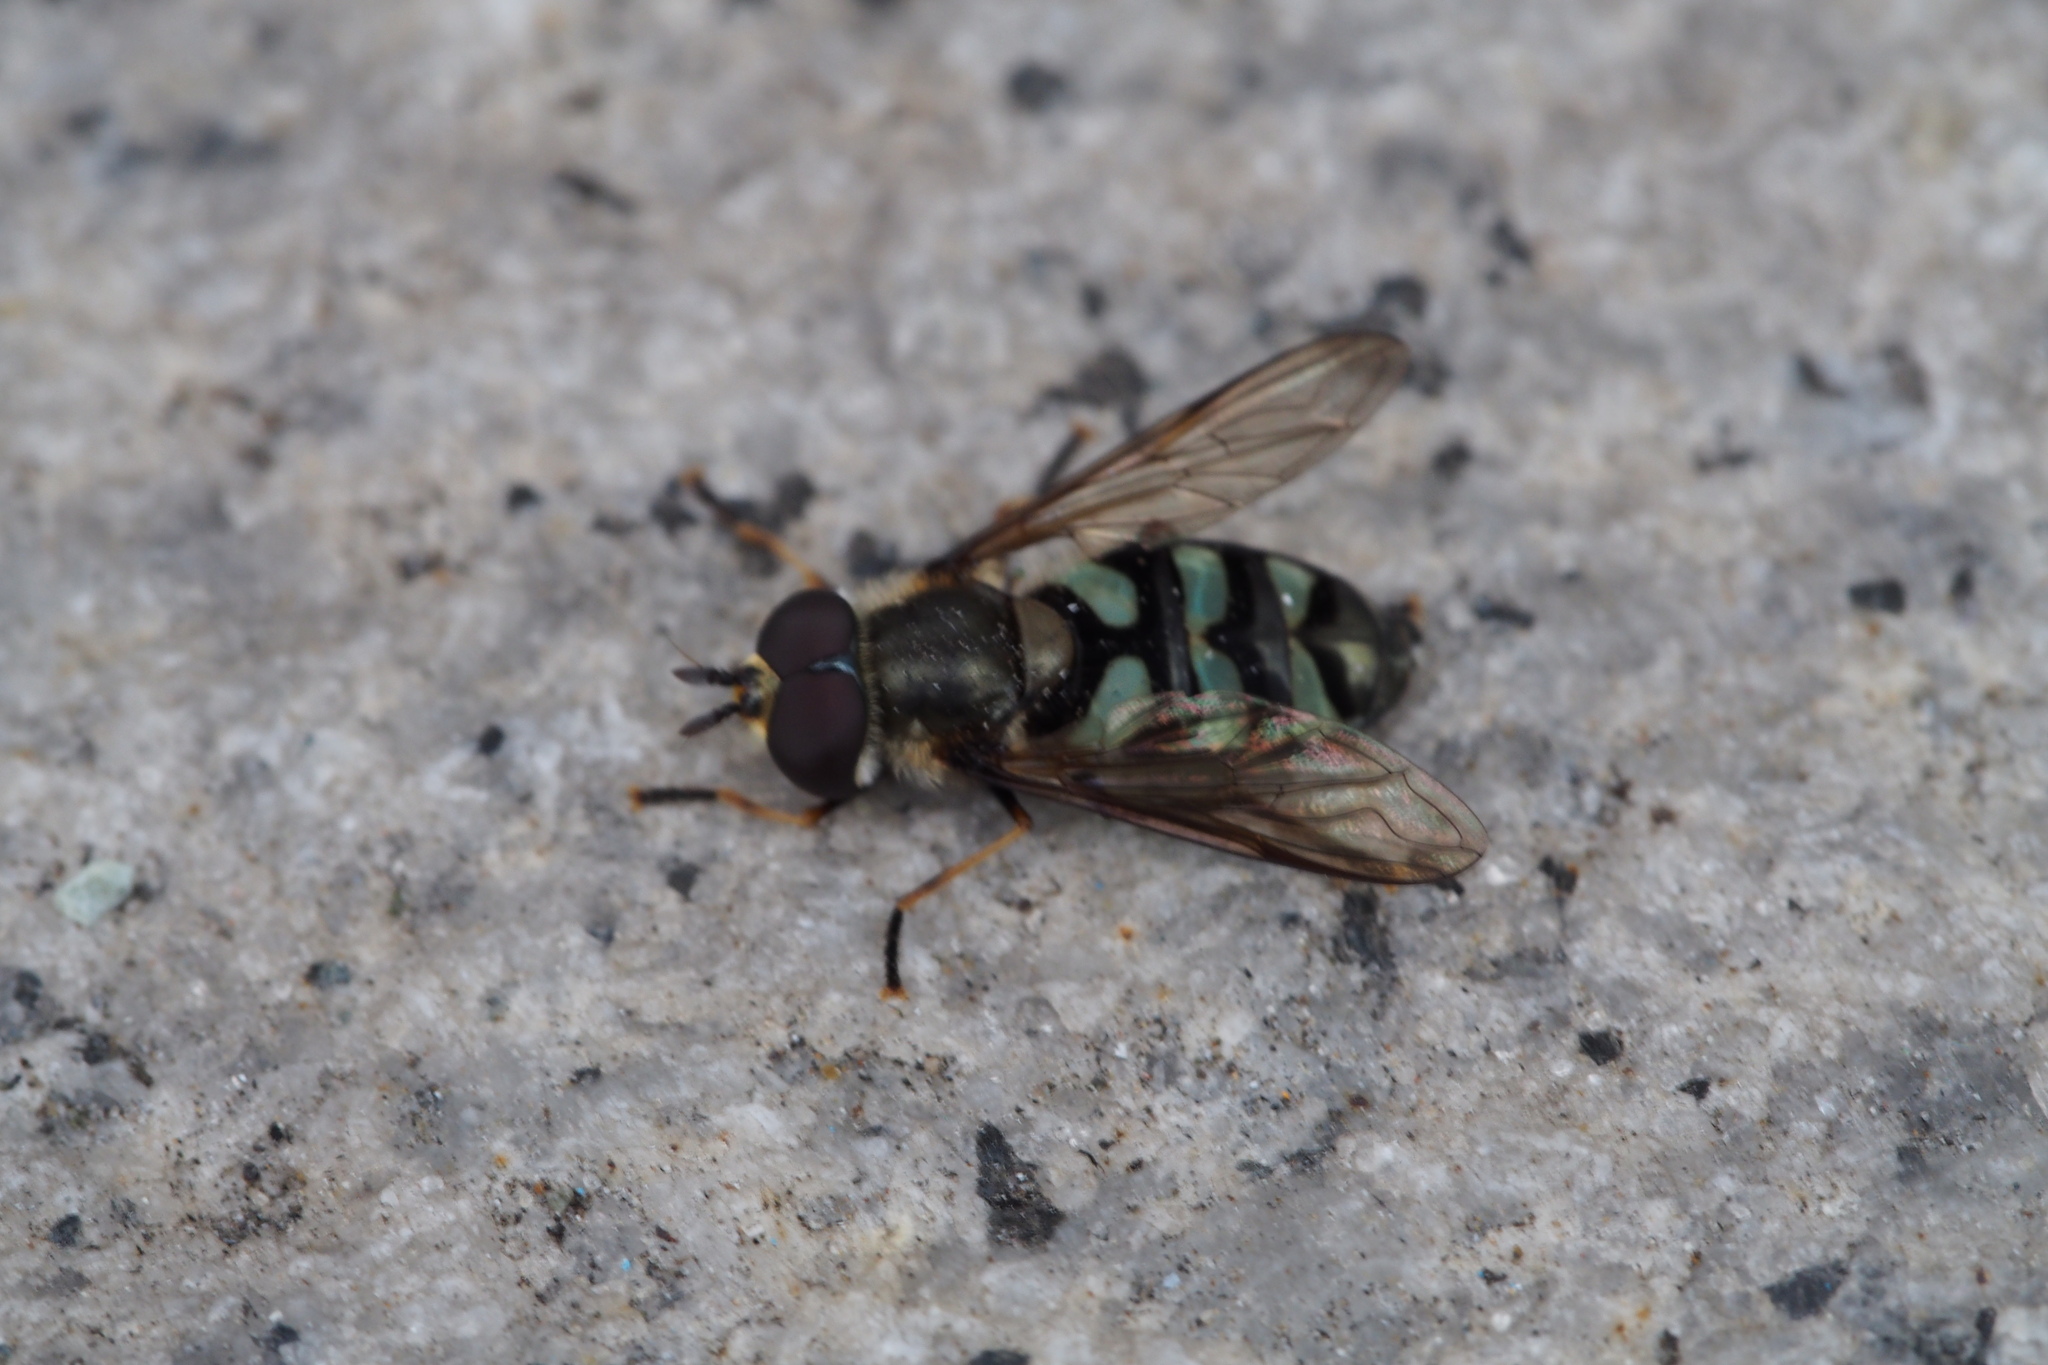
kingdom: Animalia
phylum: Arthropoda
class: Insecta
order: Diptera
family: Syrphidae
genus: Didea
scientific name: Didea alneti
